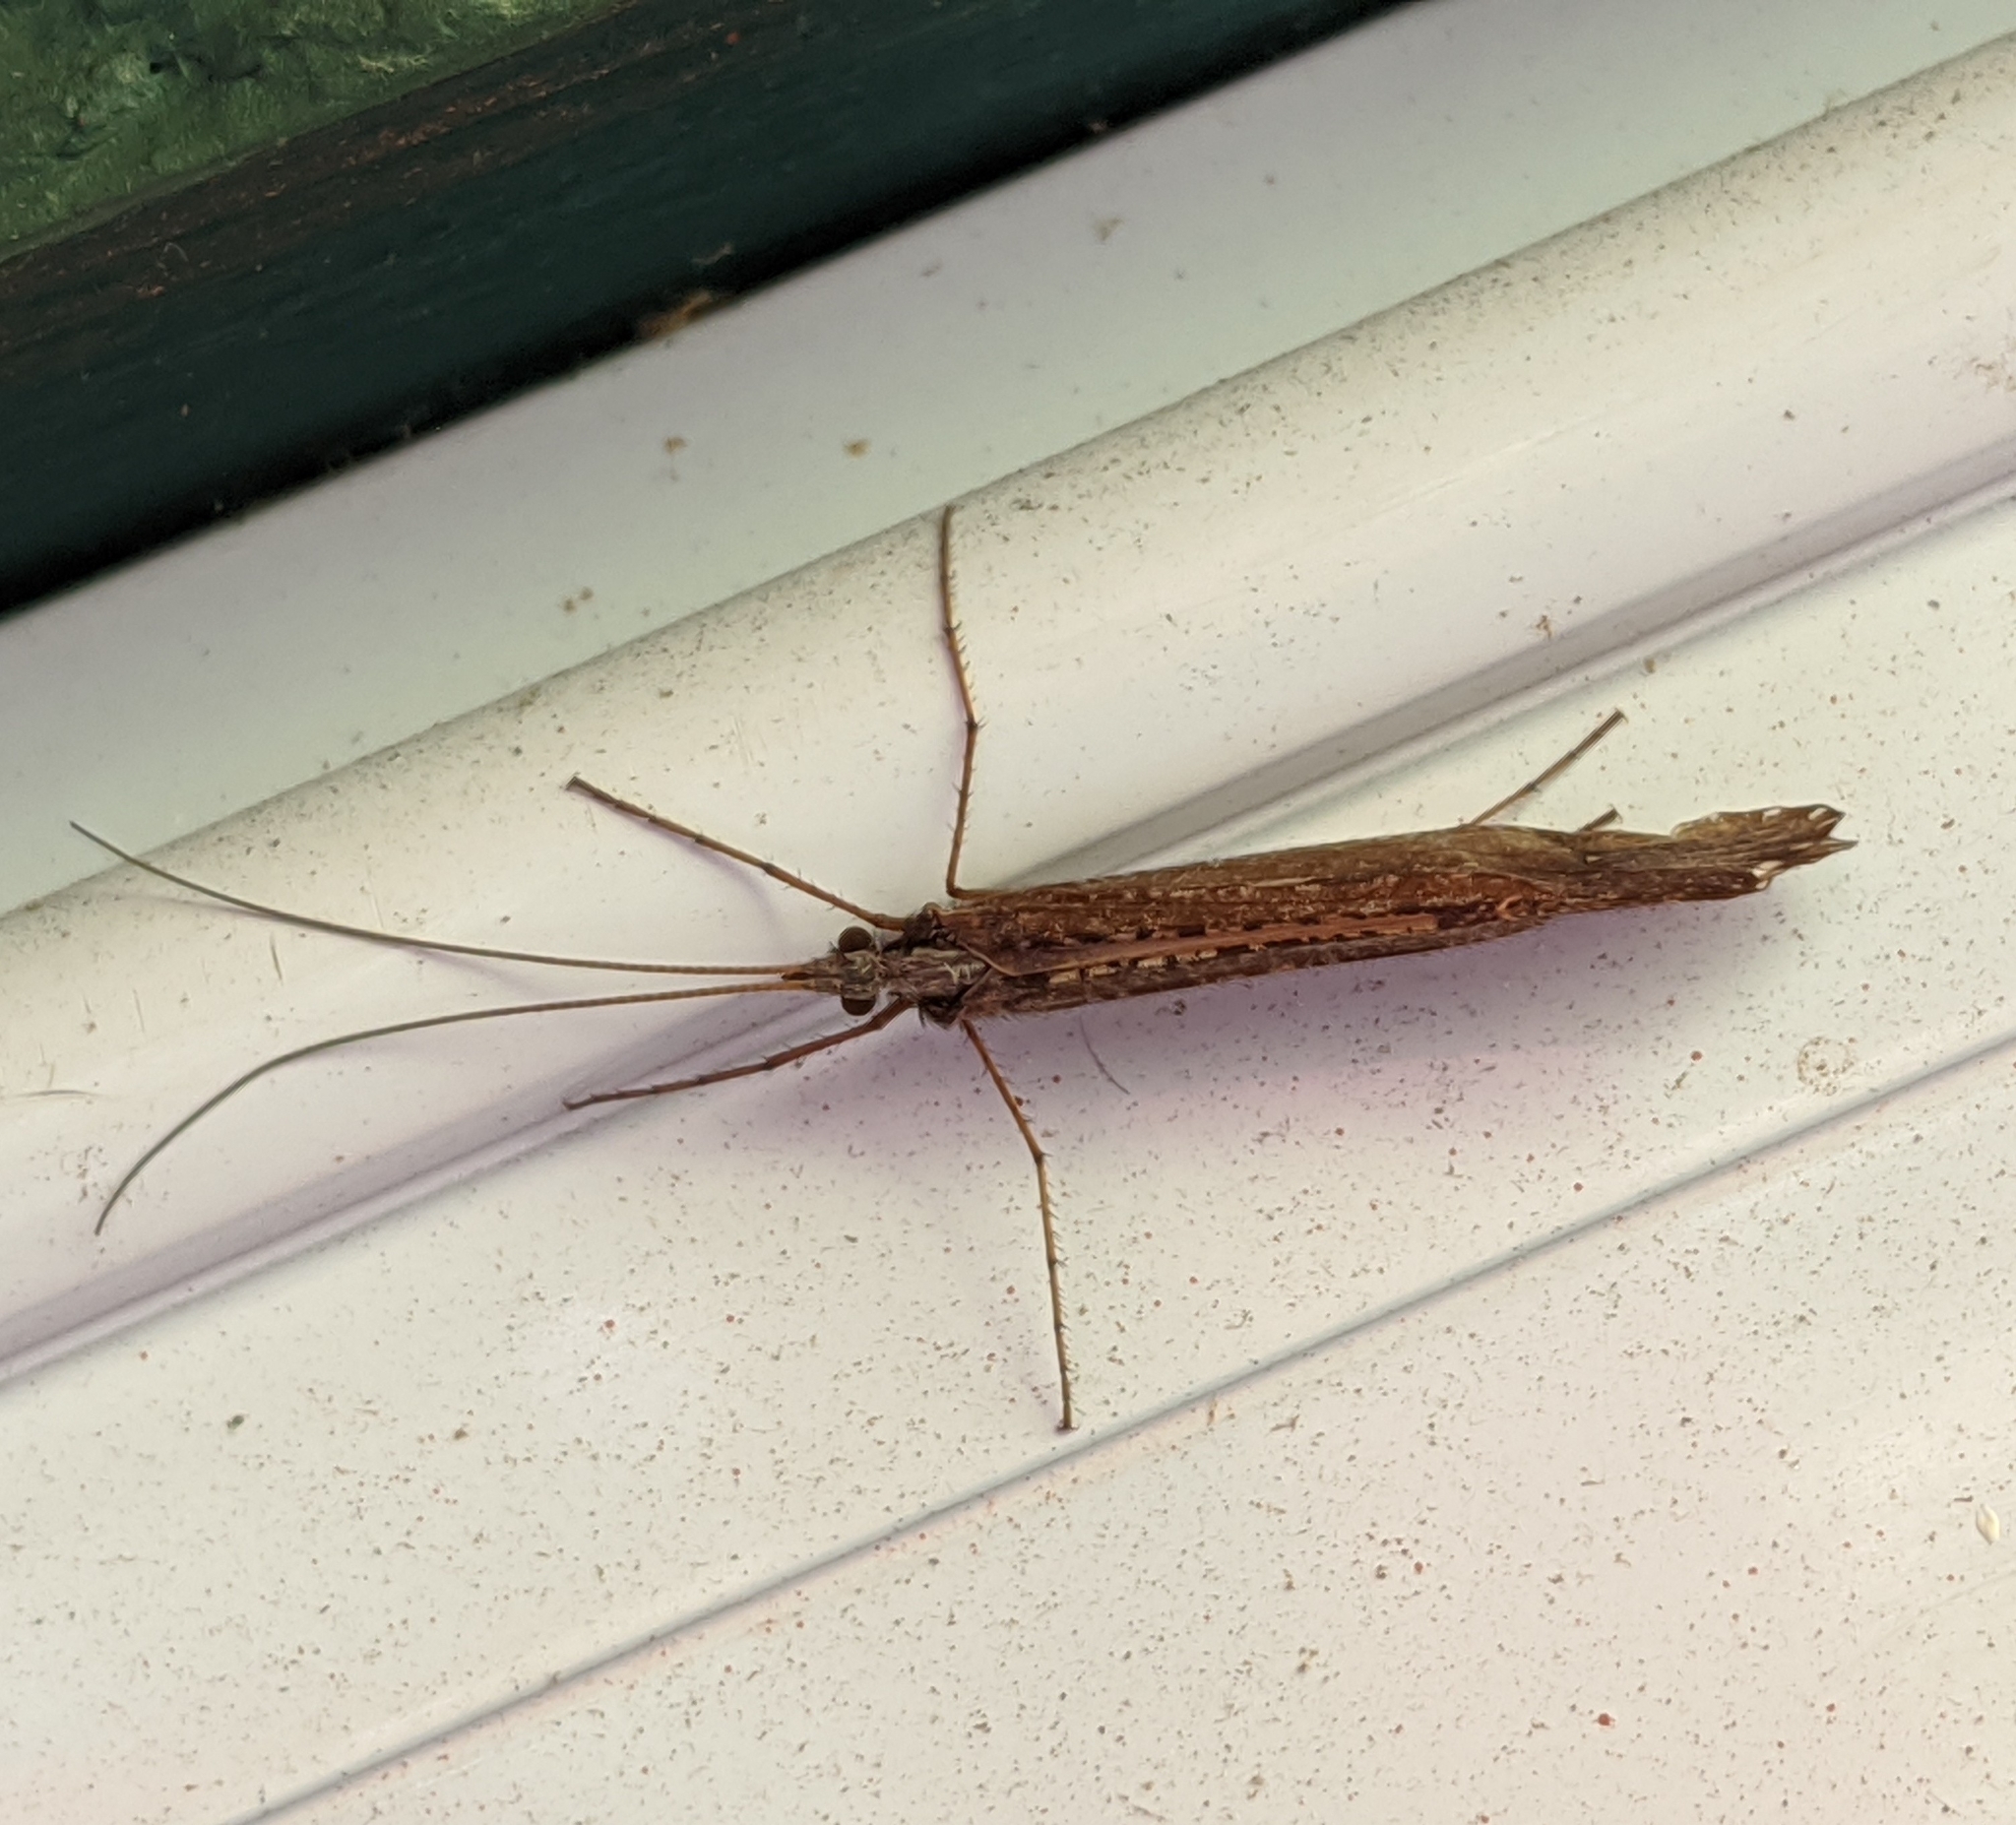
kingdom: Animalia
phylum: Arthropoda
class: Insecta
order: Trichoptera
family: Limnephilidae
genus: Glyphopsyche
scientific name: Glyphopsyche irrorata
